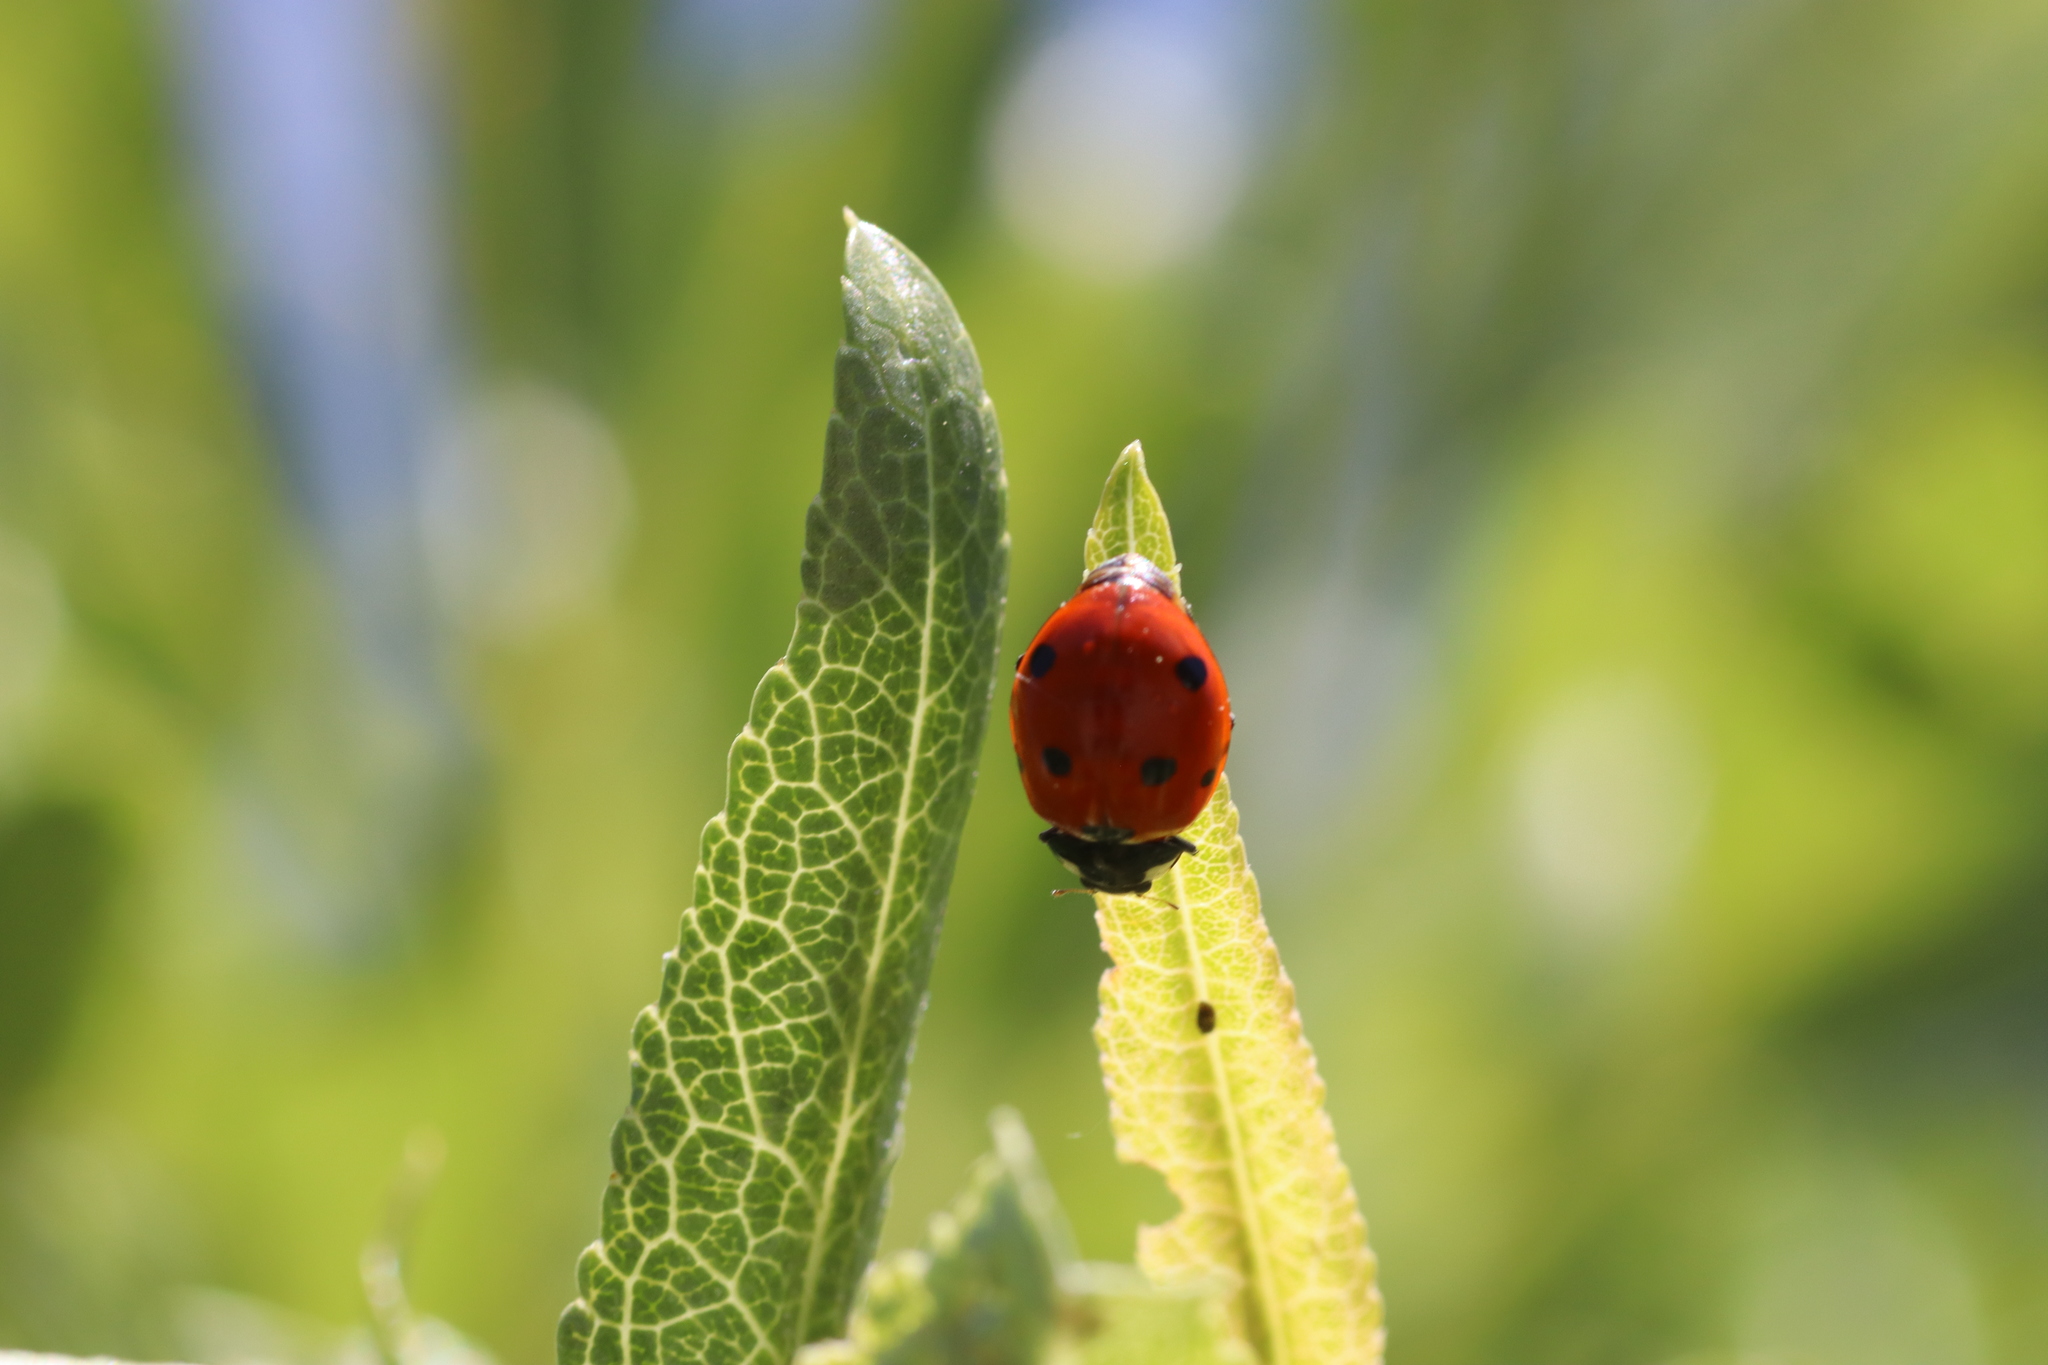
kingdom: Animalia
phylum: Arthropoda
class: Insecta
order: Coleoptera
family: Coccinellidae
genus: Coccinella
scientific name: Coccinella septempunctata
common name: Sevenspotted lady beetle
